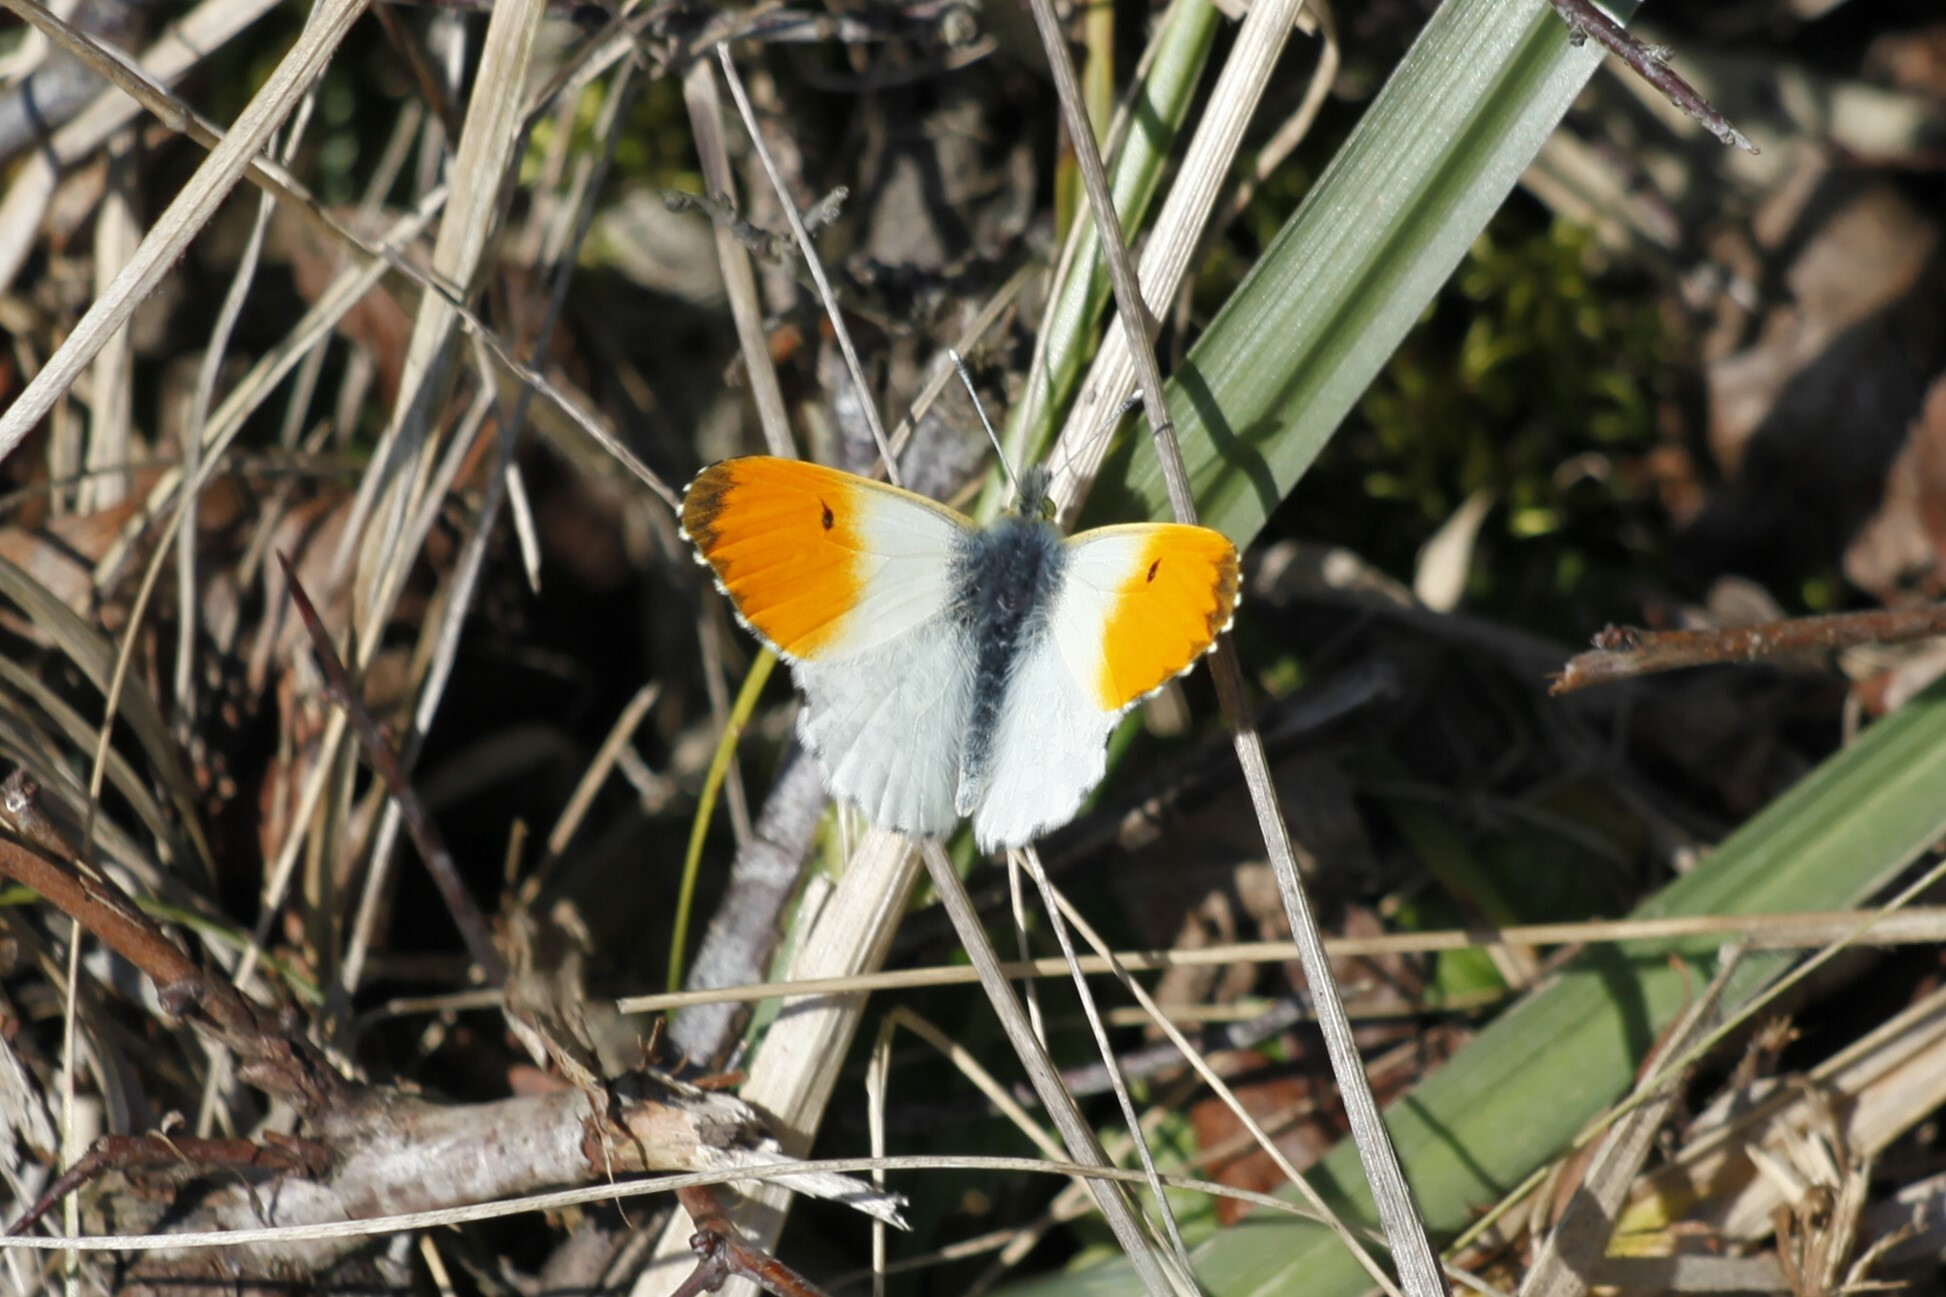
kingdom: Animalia
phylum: Arthropoda
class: Insecta
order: Lepidoptera
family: Pieridae
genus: Anthocharis
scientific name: Anthocharis cardamines
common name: Orange-tip
